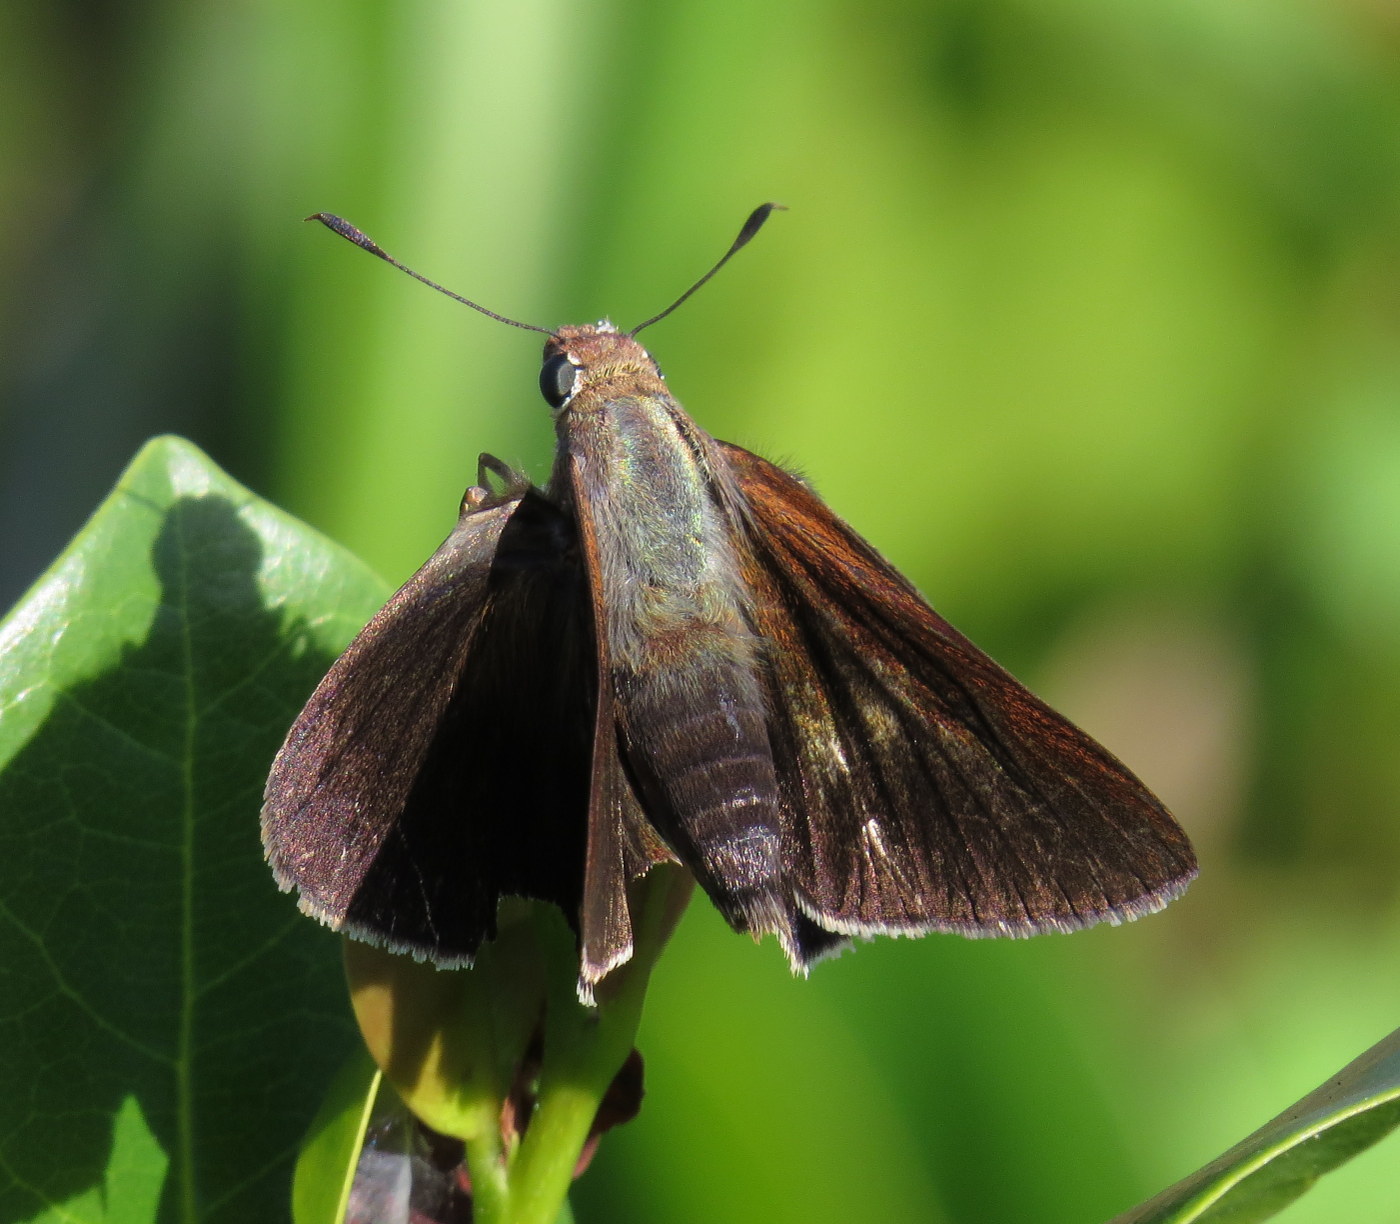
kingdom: Animalia
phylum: Arthropoda
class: Insecta
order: Lepidoptera
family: Hesperiidae
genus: Asbolis
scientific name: Asbolis capucinus
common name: Monk skipper
